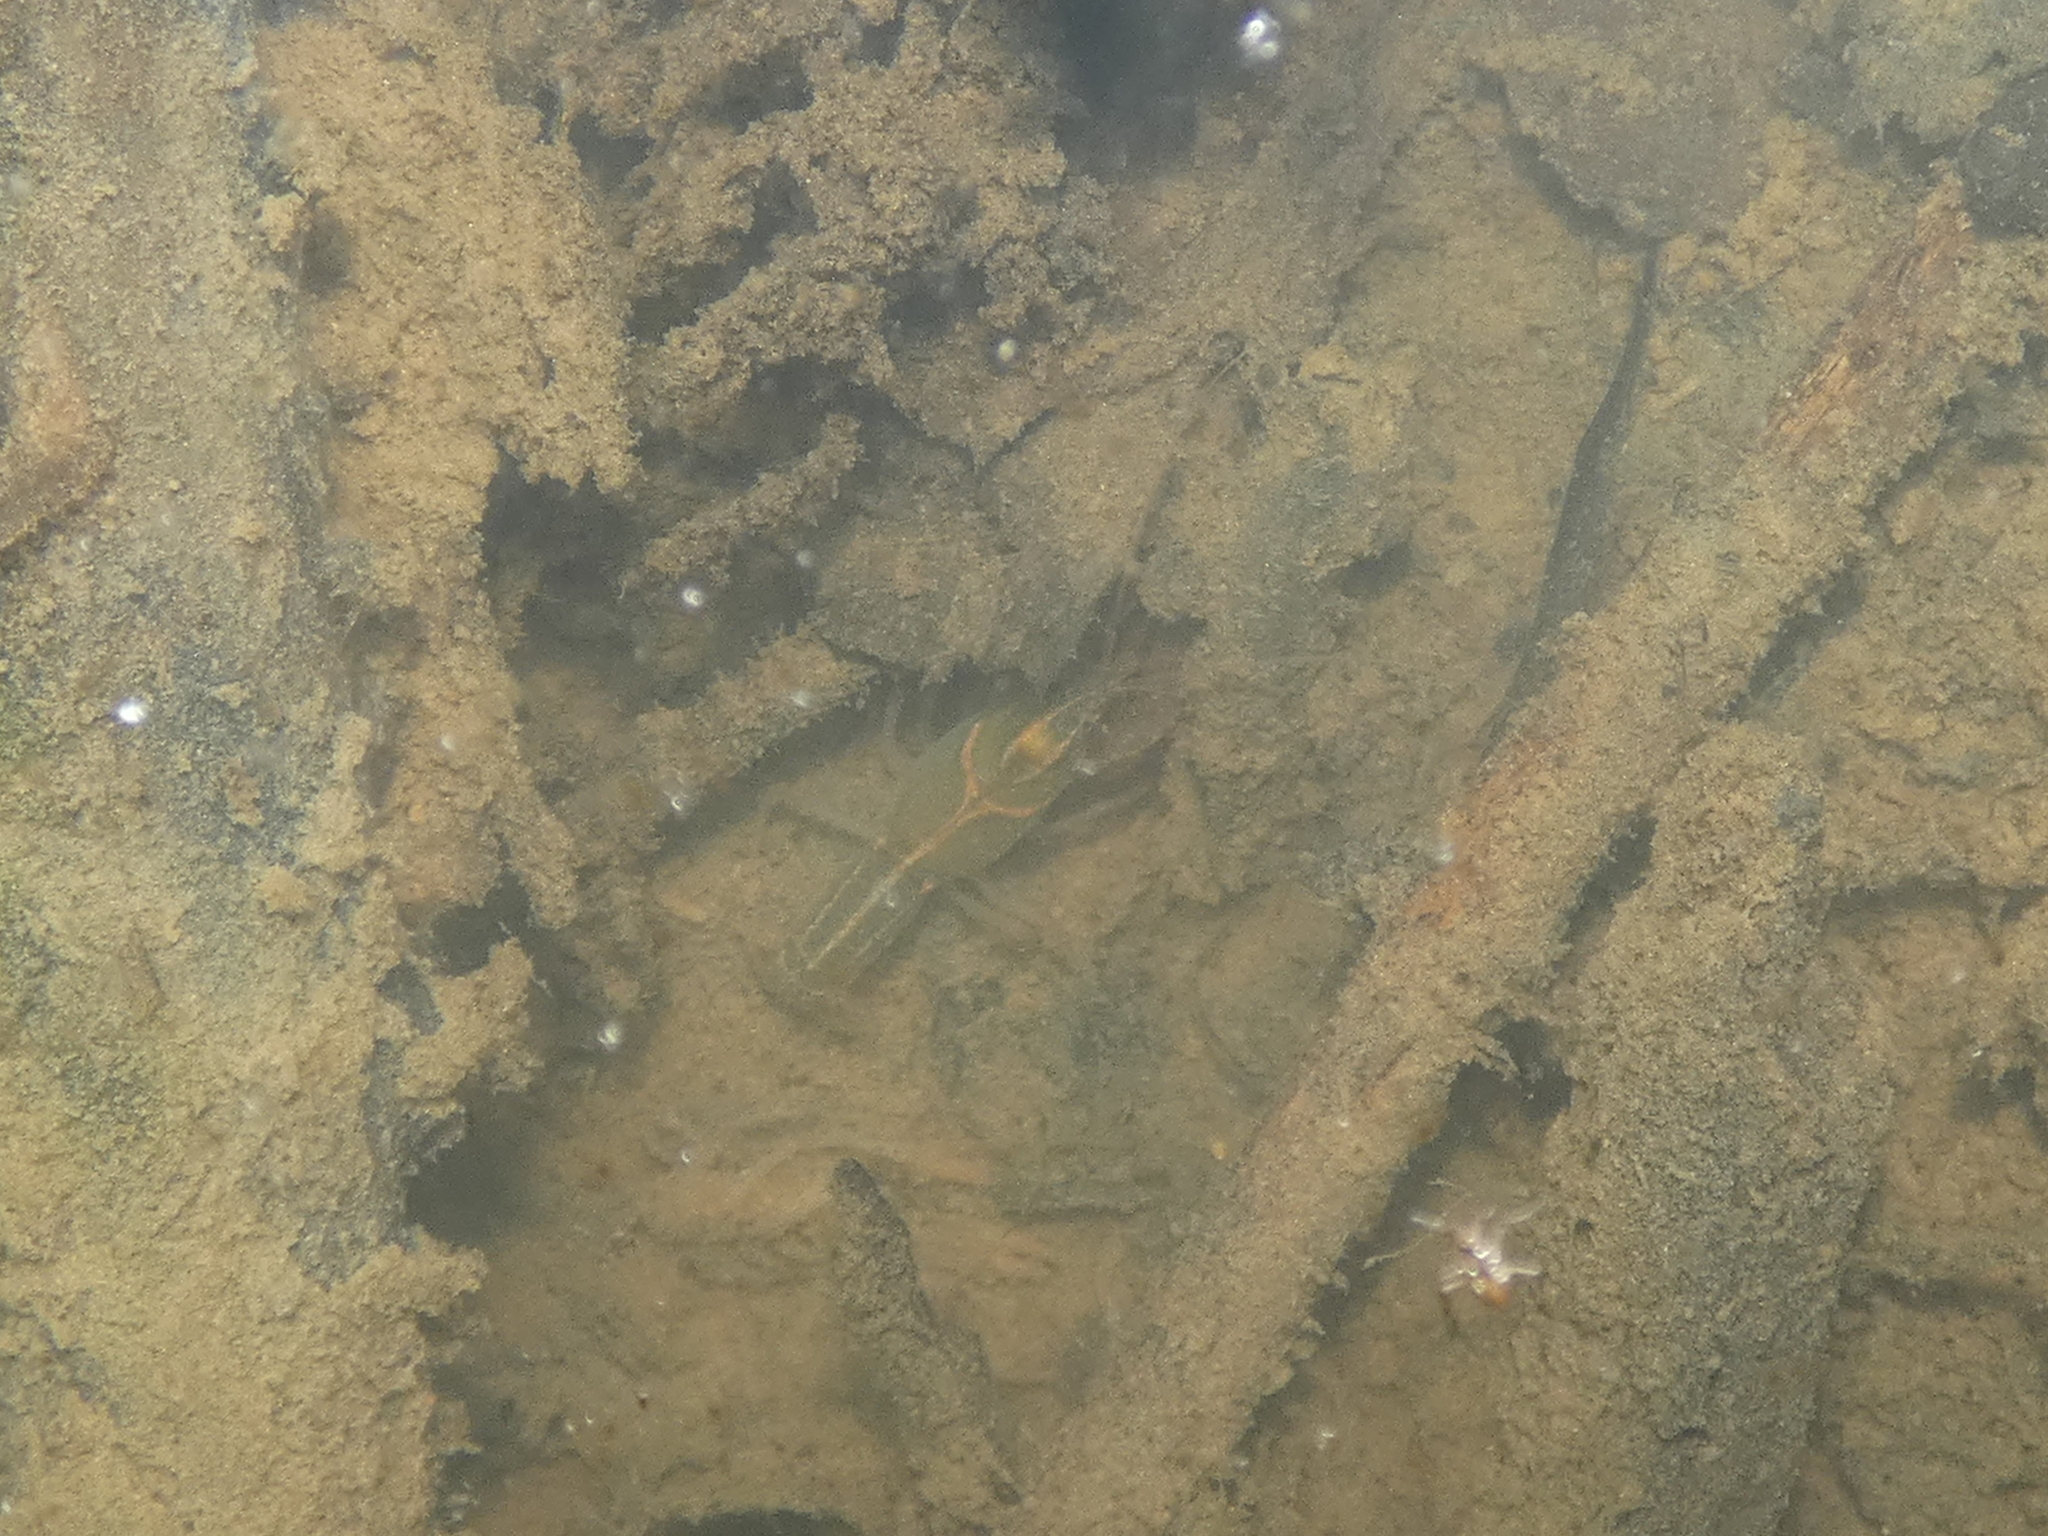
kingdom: Animalia
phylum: Arthropoda
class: Malacostraca
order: Decapoda
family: Cambaridae
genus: Lacunicambarus
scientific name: Lacunicambarus ludovicianus
